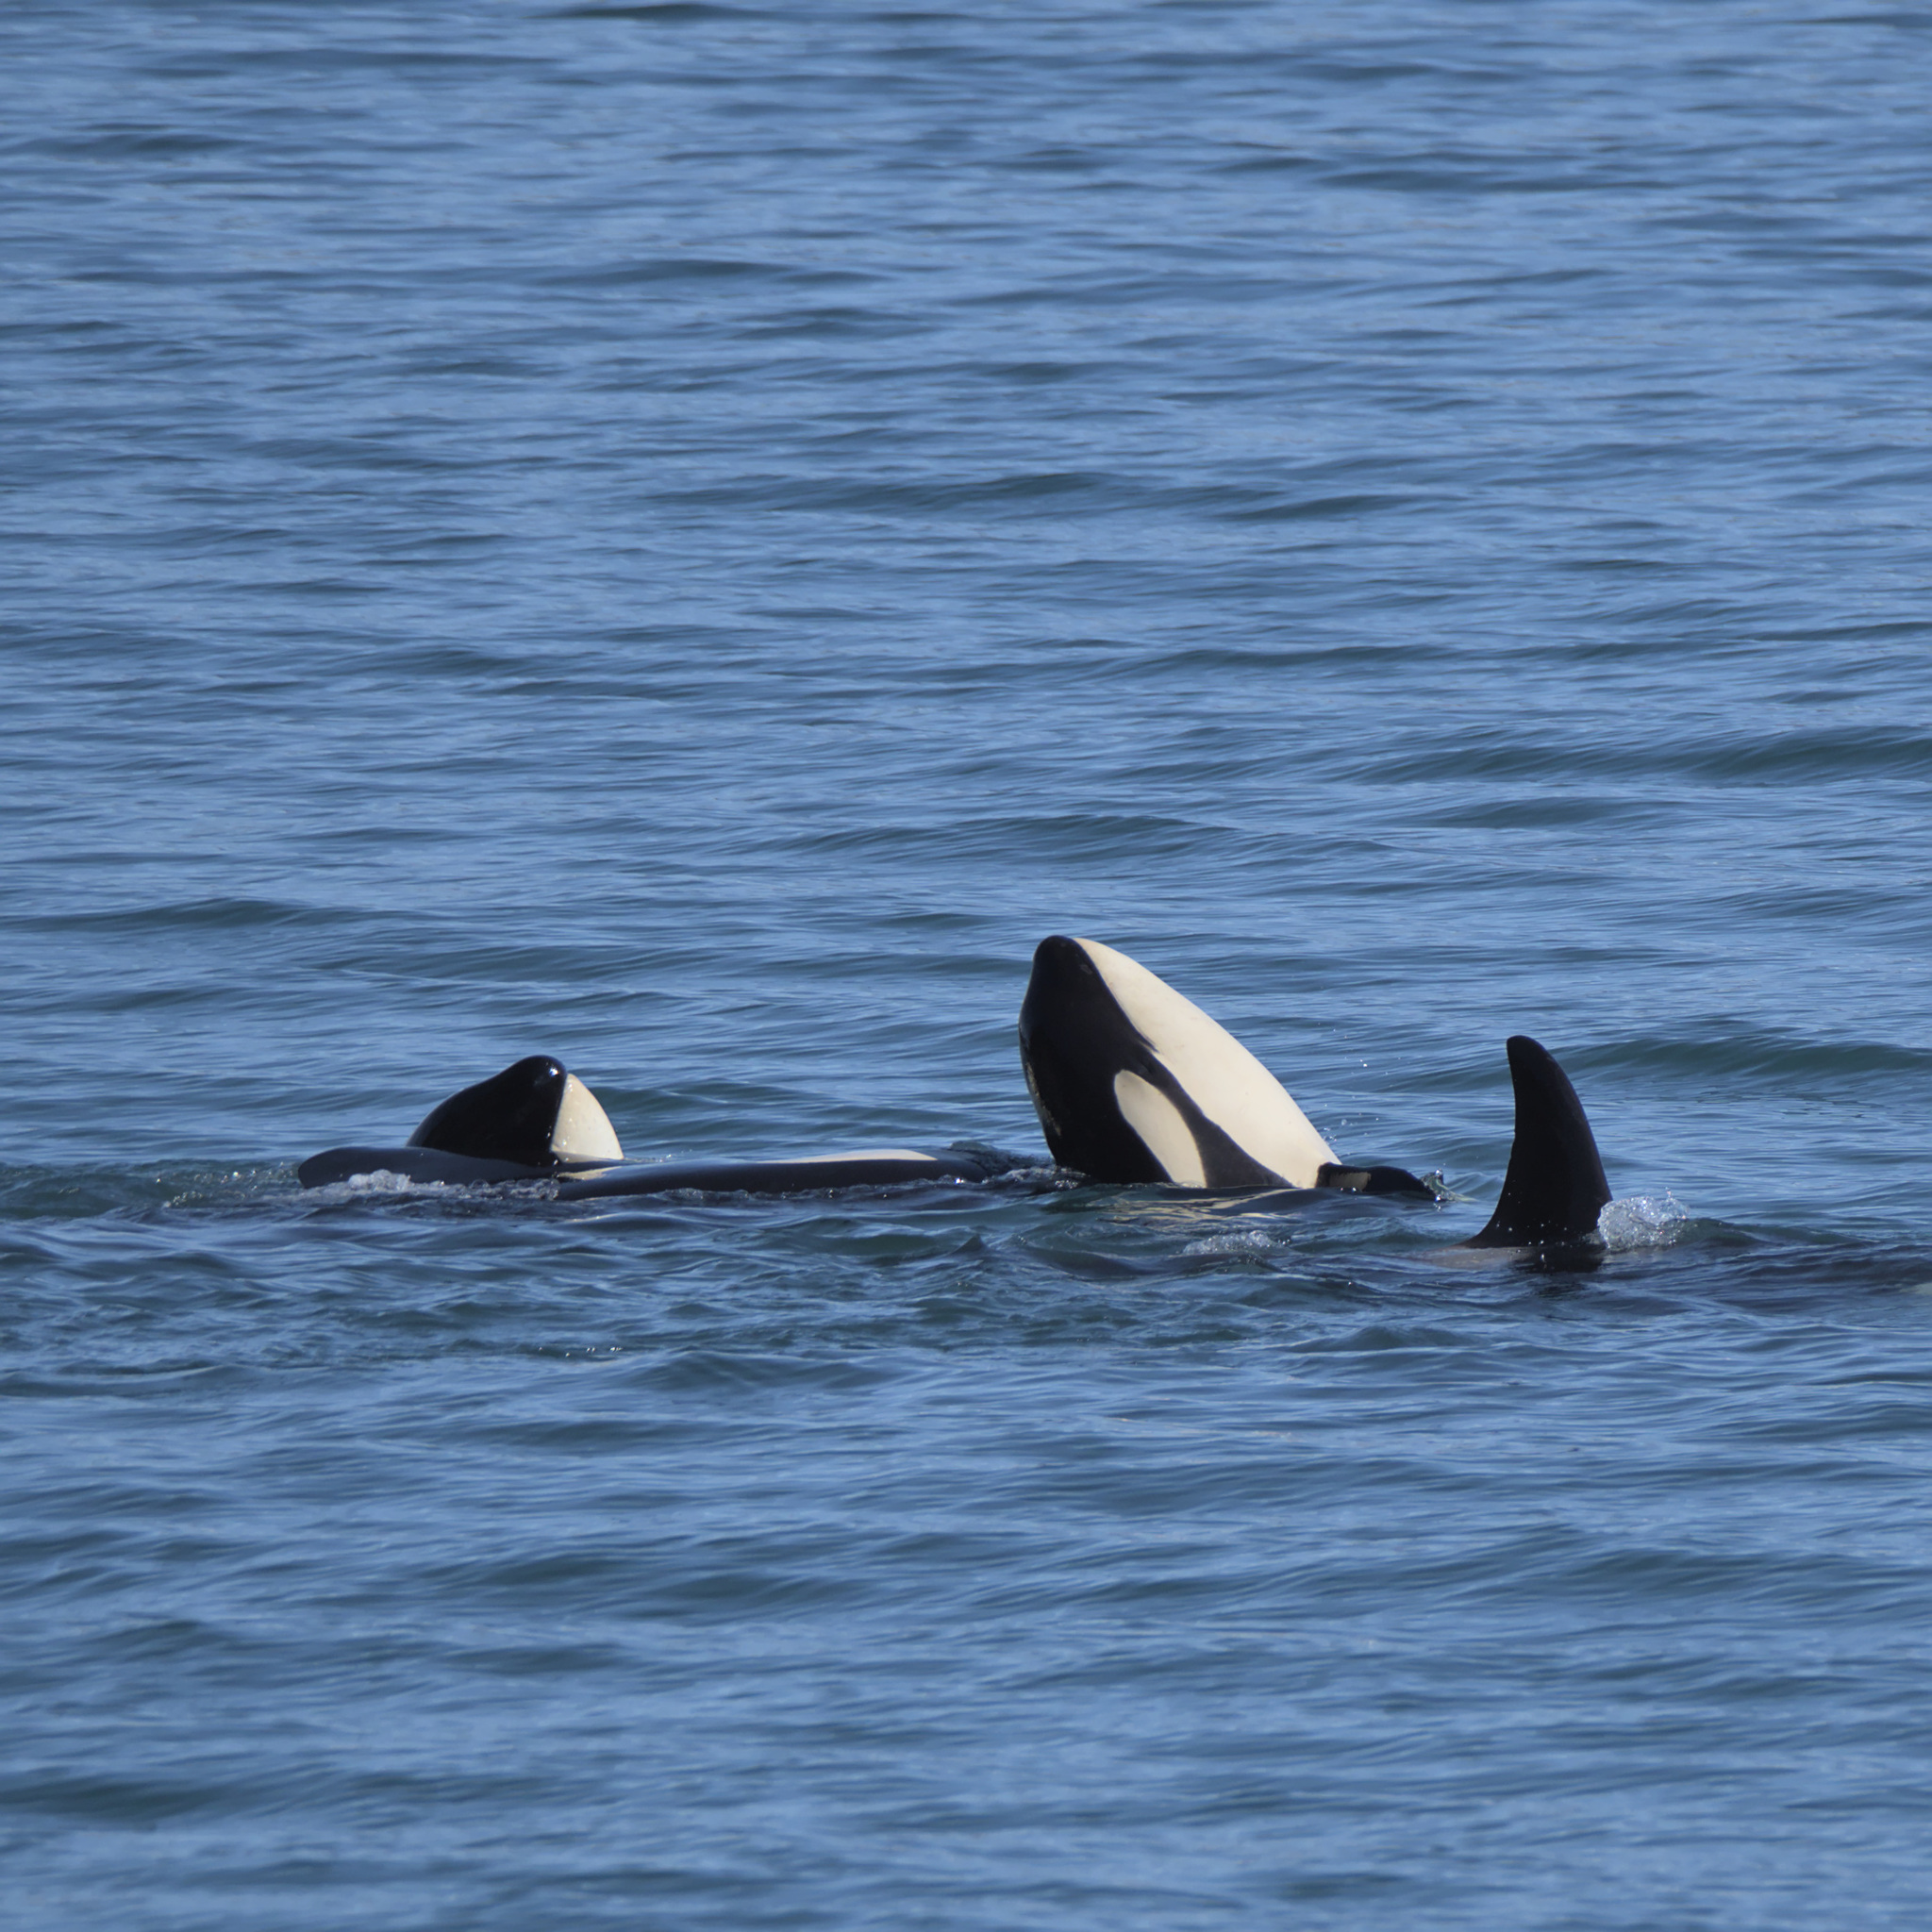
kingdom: Animalia
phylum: Chordata
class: Mammalia
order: Cetacea
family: Delphinidae
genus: Orcinus
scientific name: Orcinus orca
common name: Killer whale
